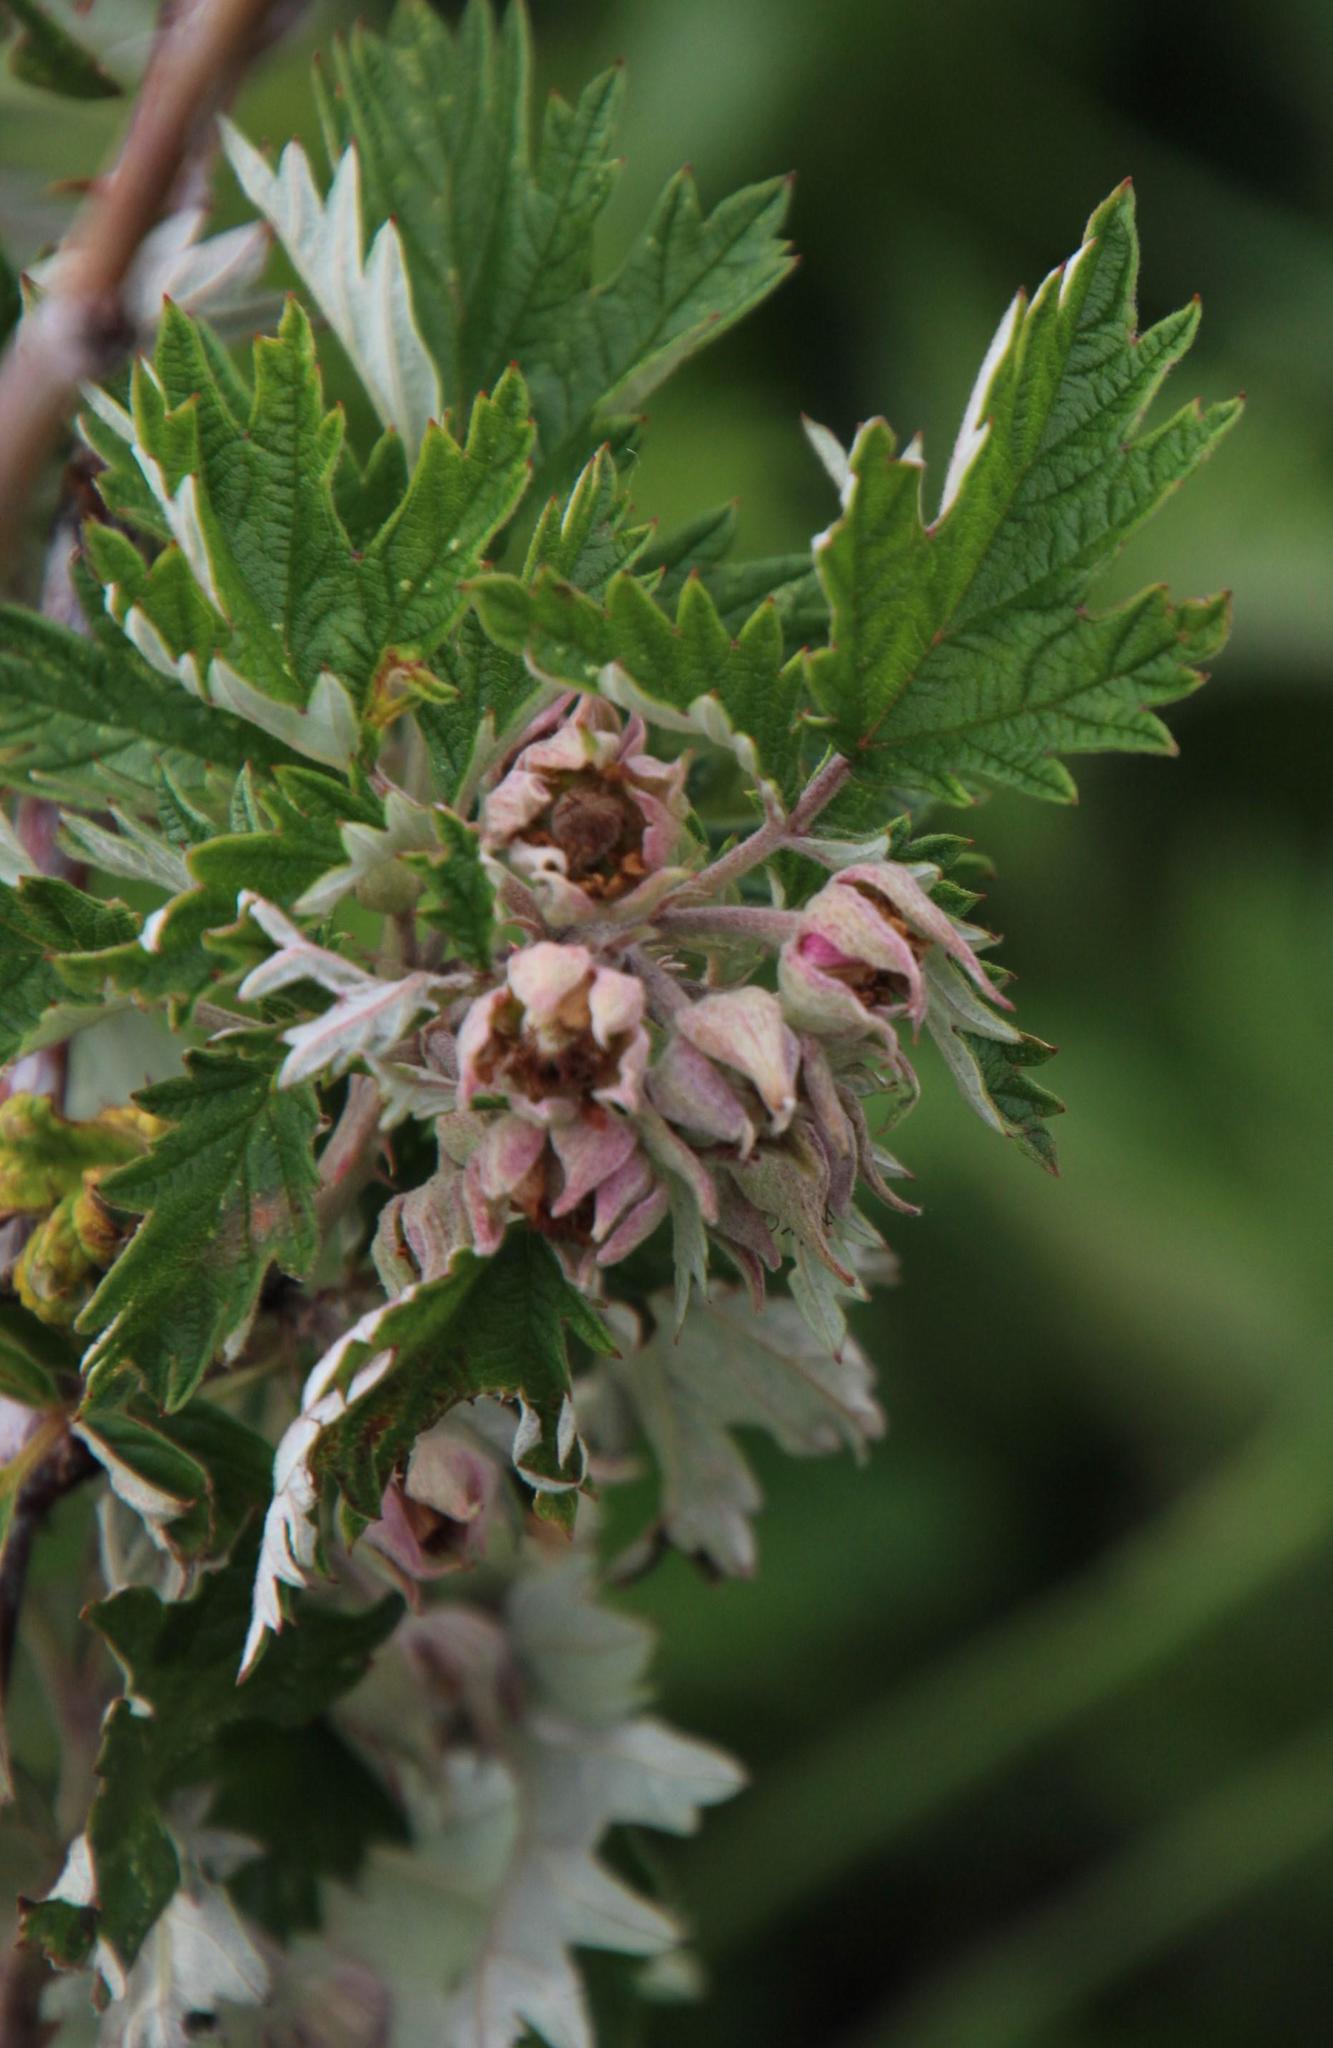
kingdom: Plantae
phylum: Tracheophyta
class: Magnoliopsida
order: Rosales
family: Rosaceae
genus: Rubus
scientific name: Rubus ludwigii
